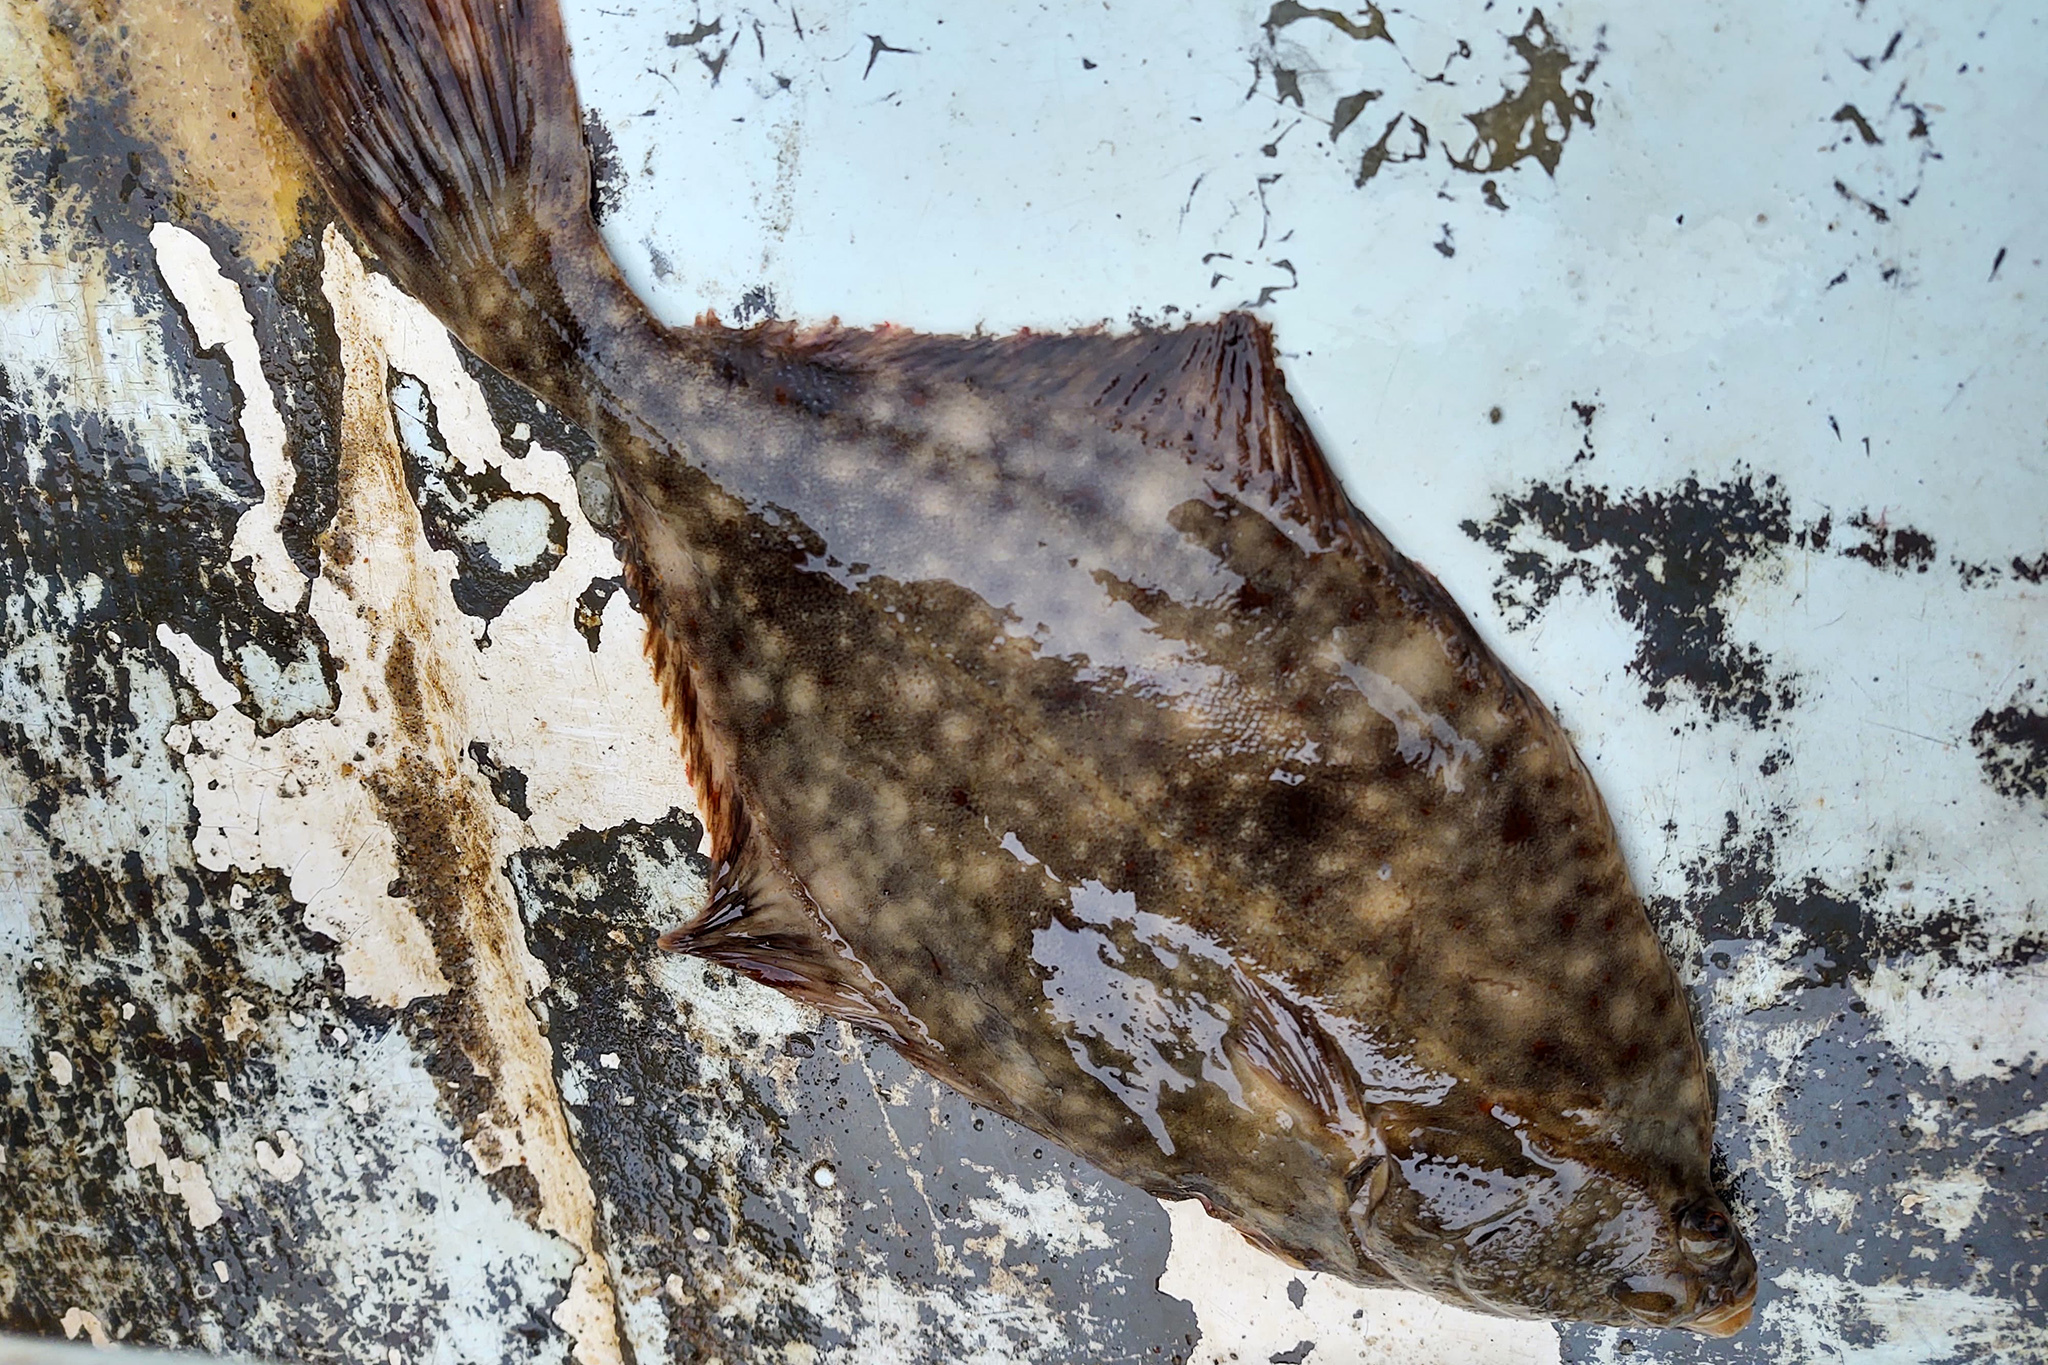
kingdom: Animalia
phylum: Chordata
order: Pleuronectiformes
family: Pleuronectidae
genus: Platichthys
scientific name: Platichthys flesus
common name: European flounder
